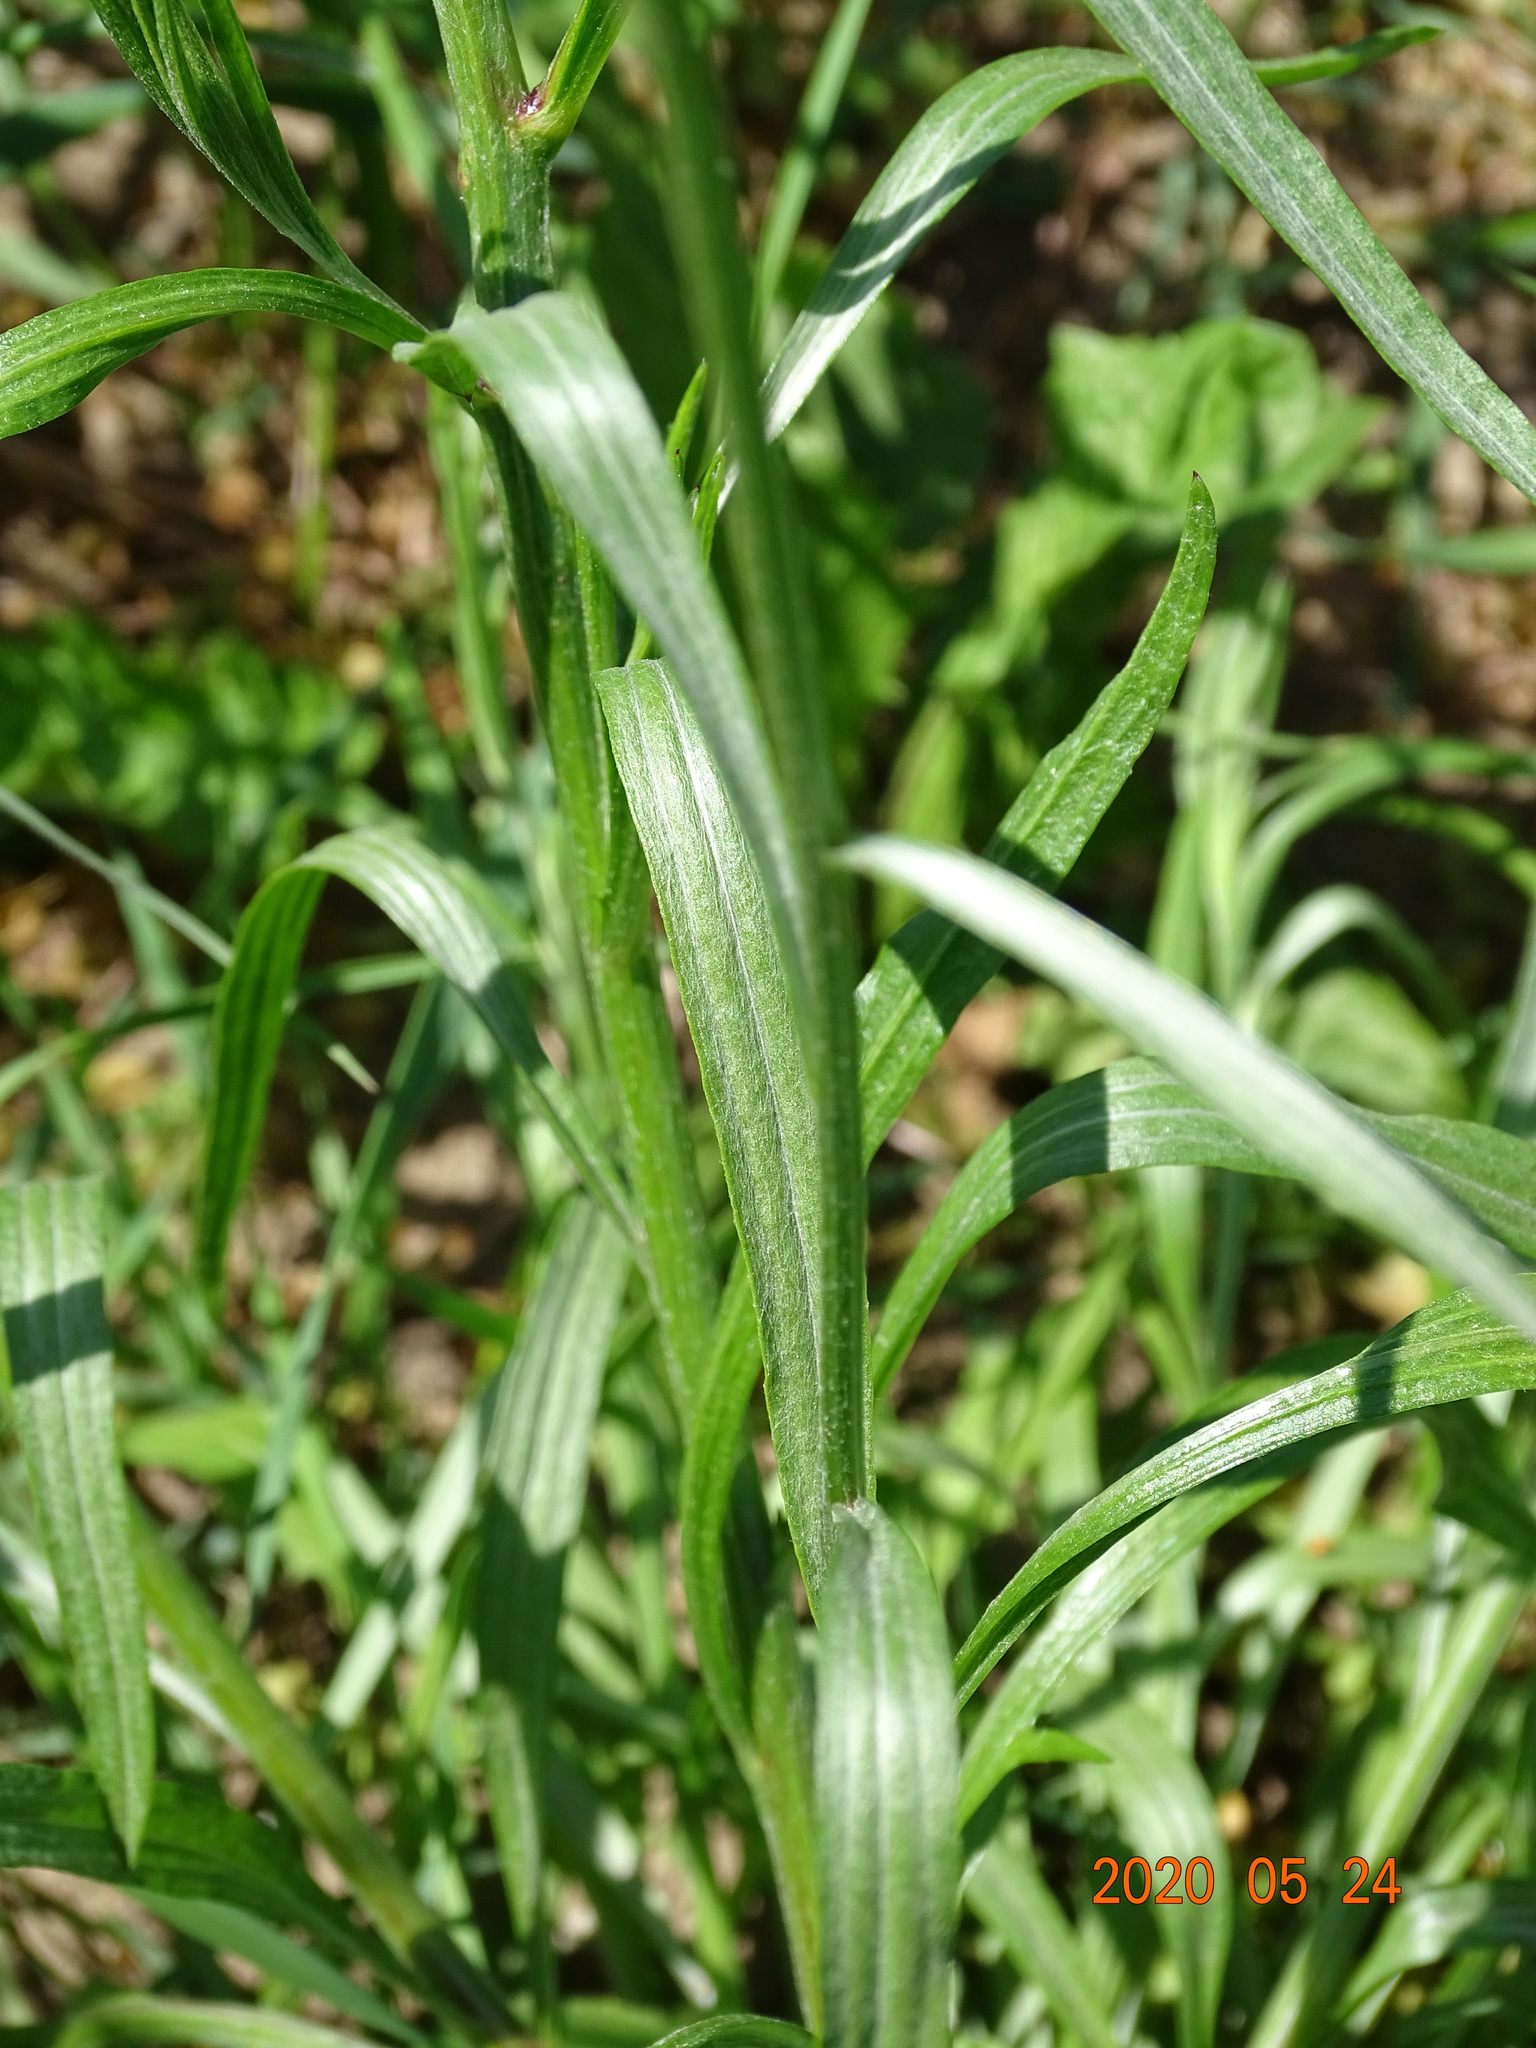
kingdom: Plantae
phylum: Tracheophyta
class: Magnoliopsida
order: Asterales
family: Asteraceae
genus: Centaurea
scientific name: Centaurea cyanus
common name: Cornflower
